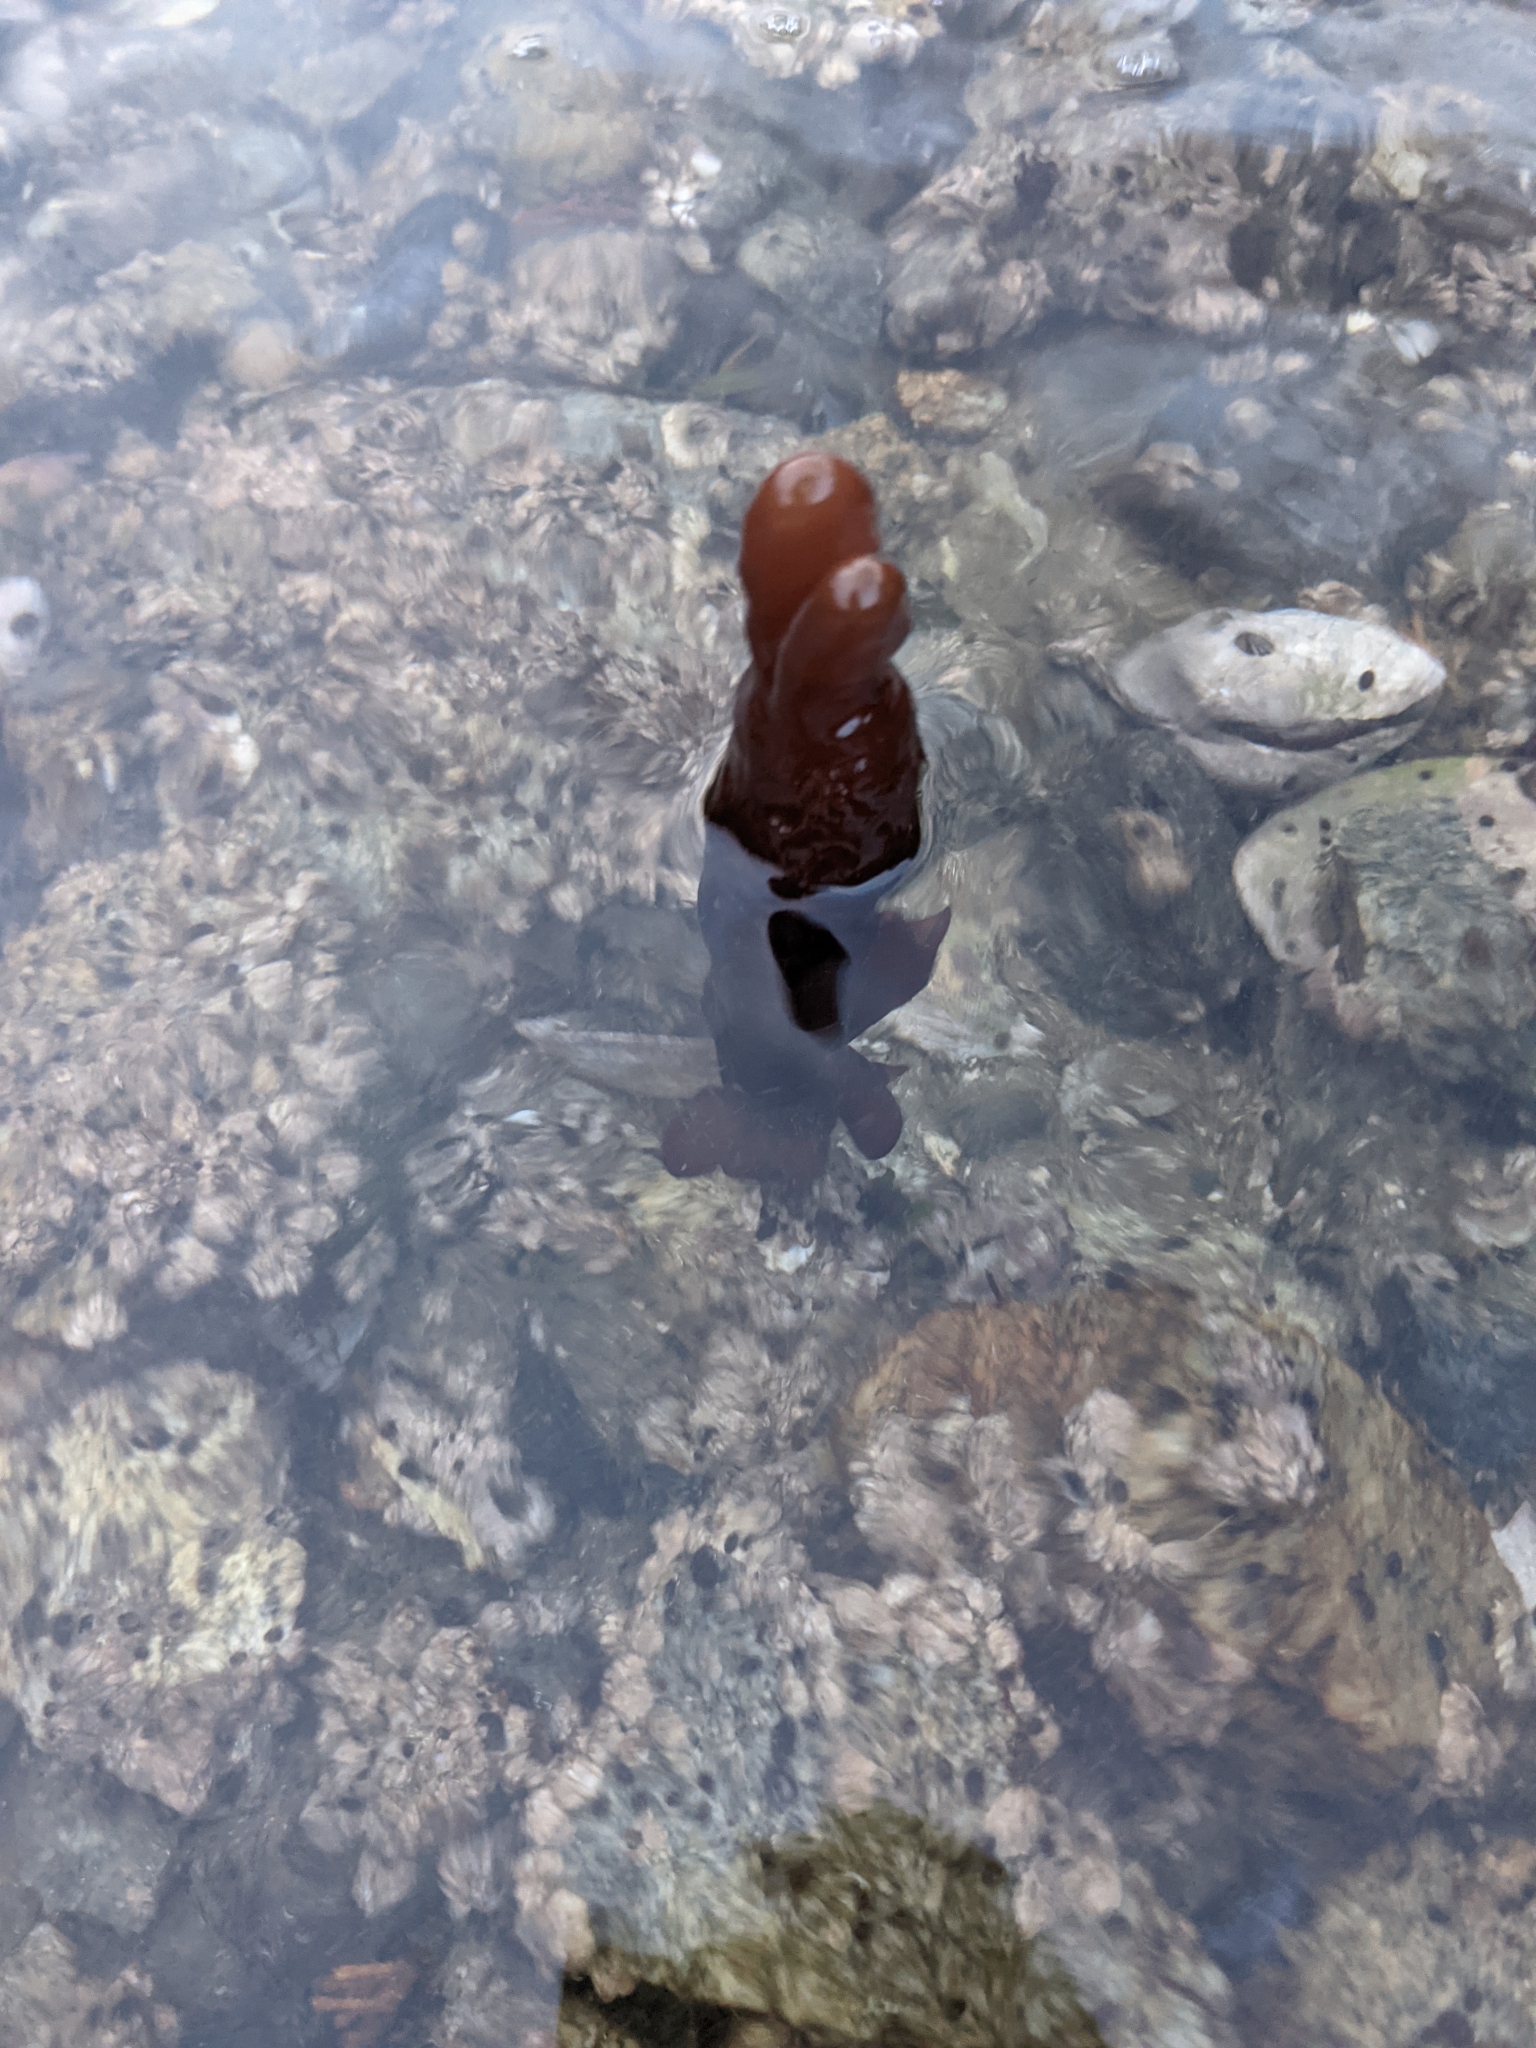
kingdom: Plantae
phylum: Rhodophyta
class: Florideophyceae
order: Palmariales
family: Palmariaceae
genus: Halosaccion
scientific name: Halosaccion glandiforme
